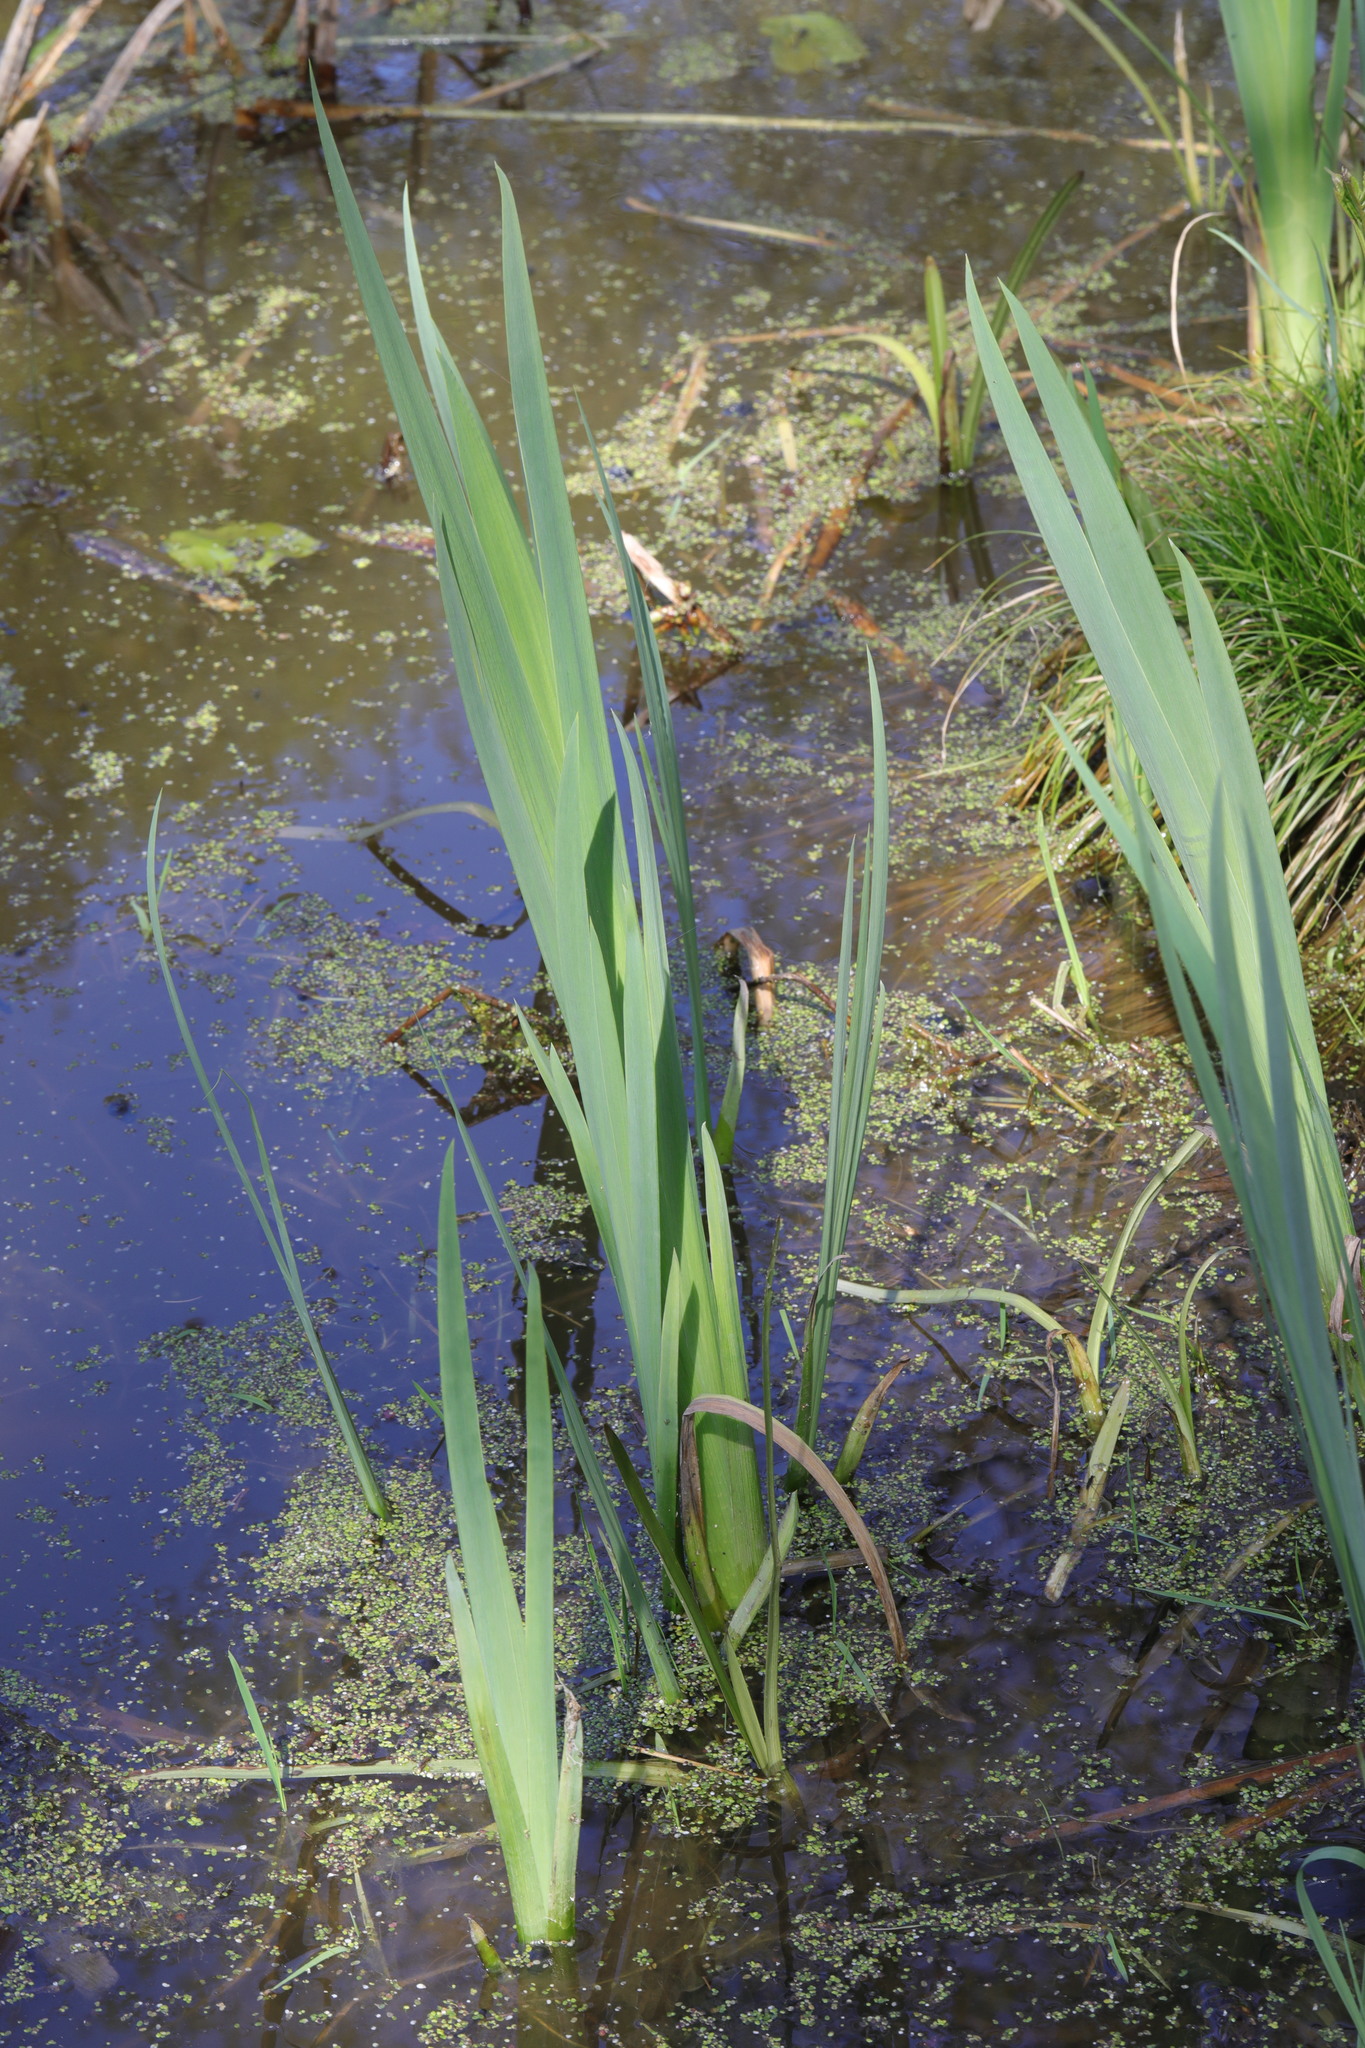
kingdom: Plantae
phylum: Tracheophyta
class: Liliopsida
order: Asparagales
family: Iridaceae
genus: Iris
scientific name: Iris pseudacorus
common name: Yellow flag
